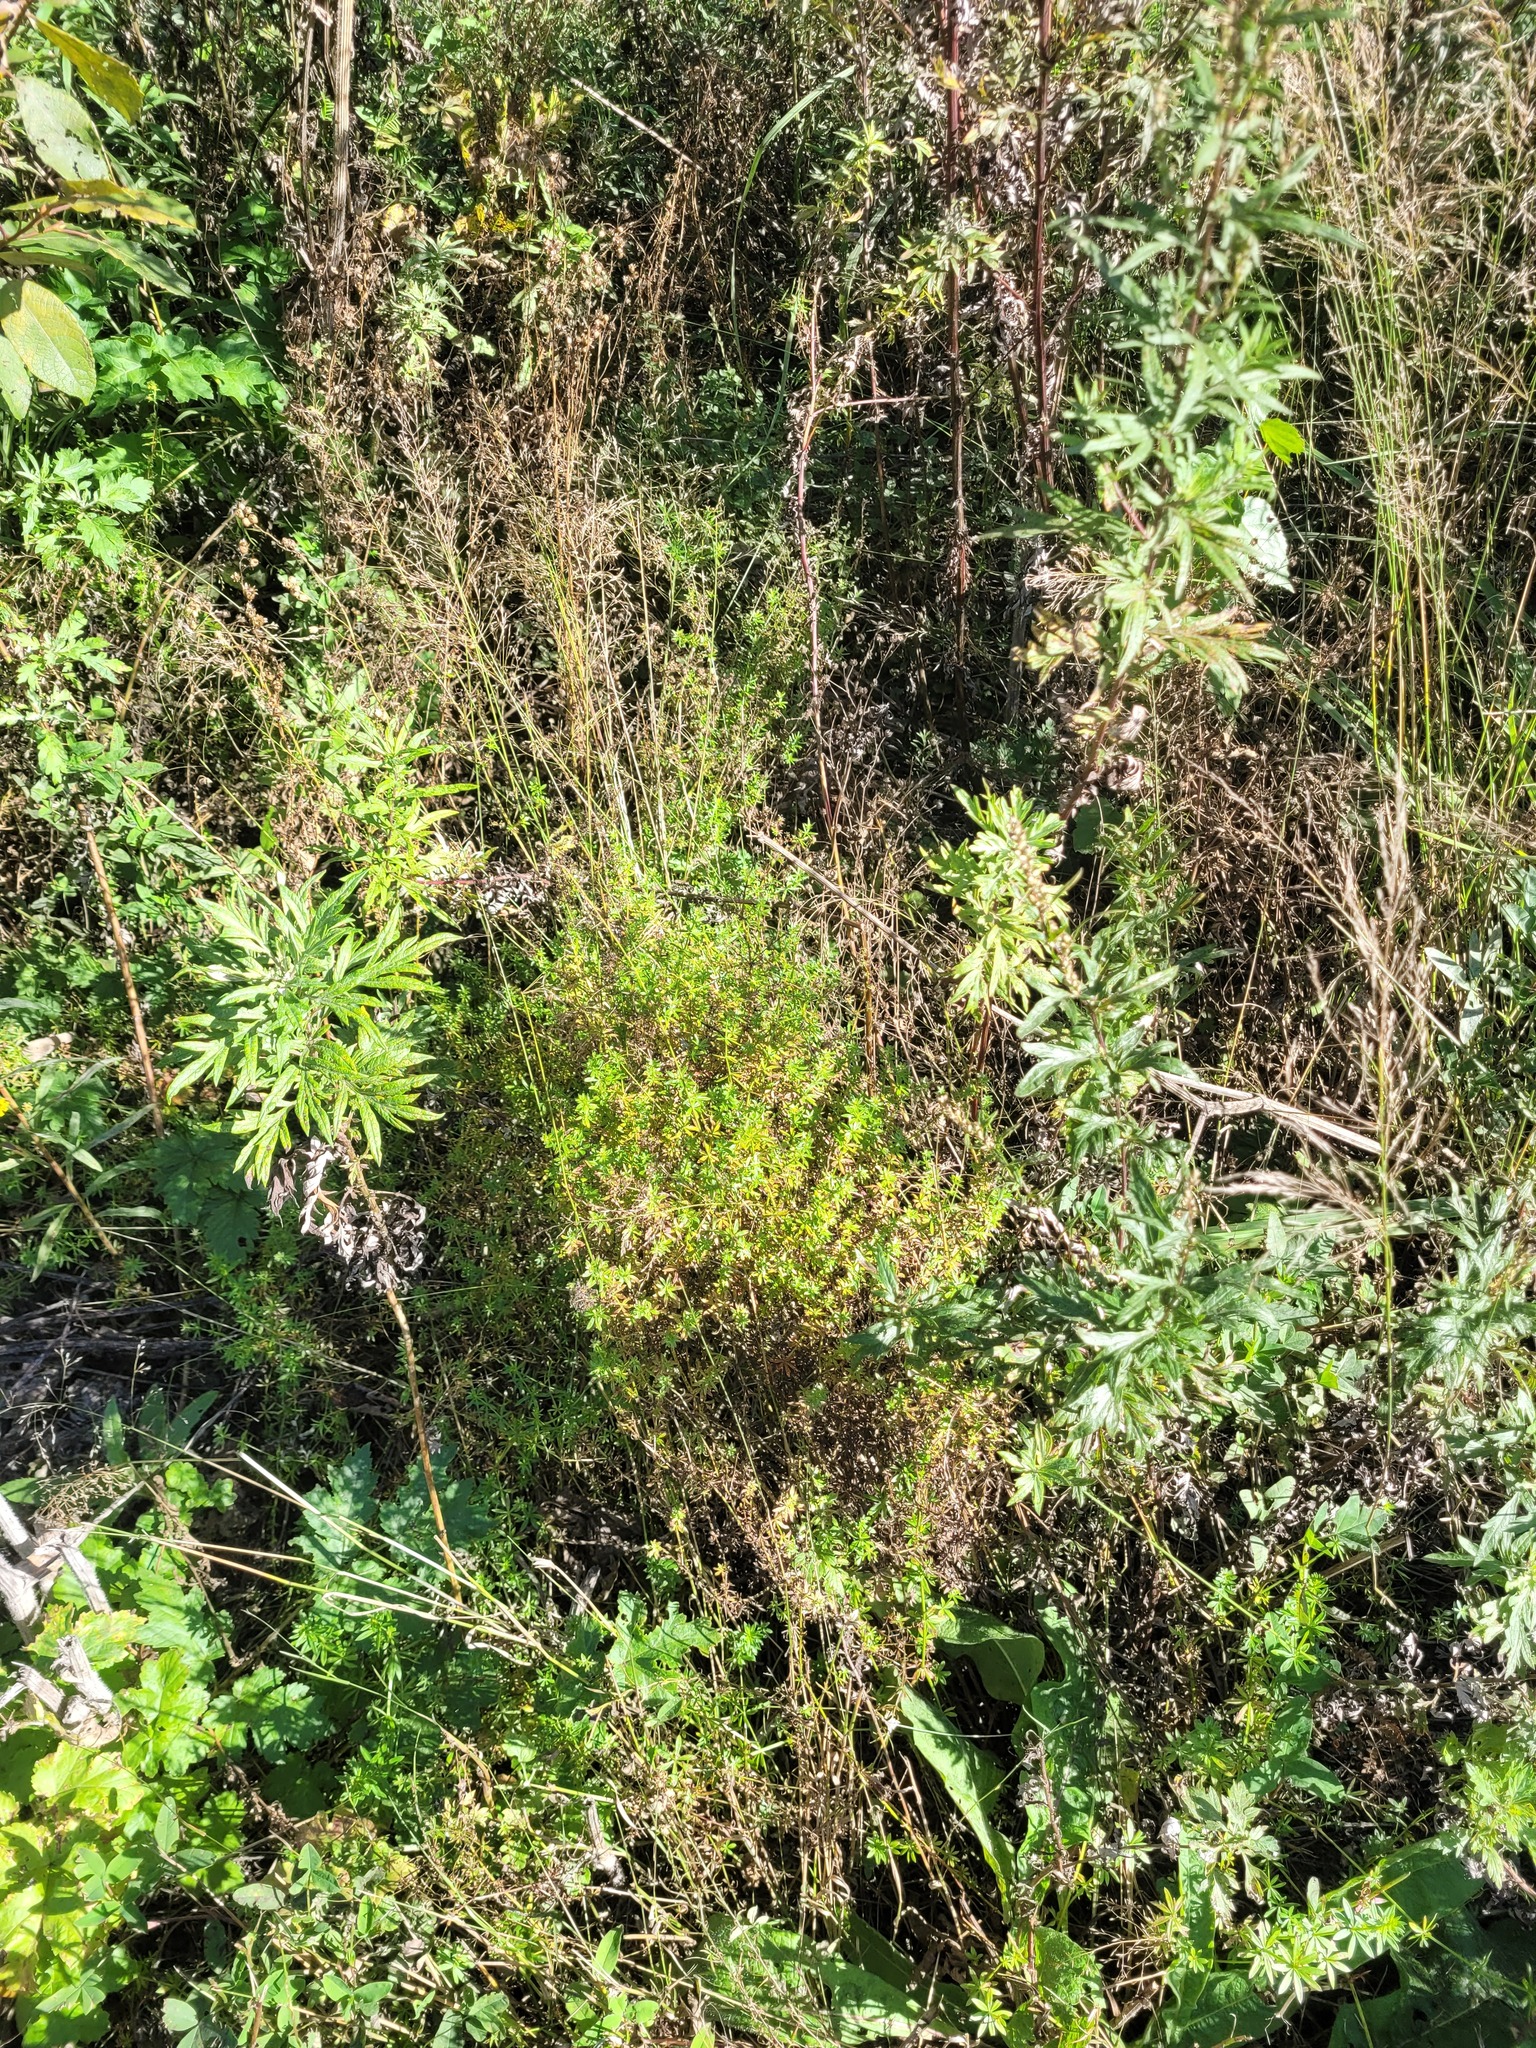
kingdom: Plantae
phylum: Tracheophyta
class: Magnoliopsida
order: Gentianales
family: Rubiaceae
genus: Galium
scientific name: Galium mollugo
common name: Hedge bedstraw
